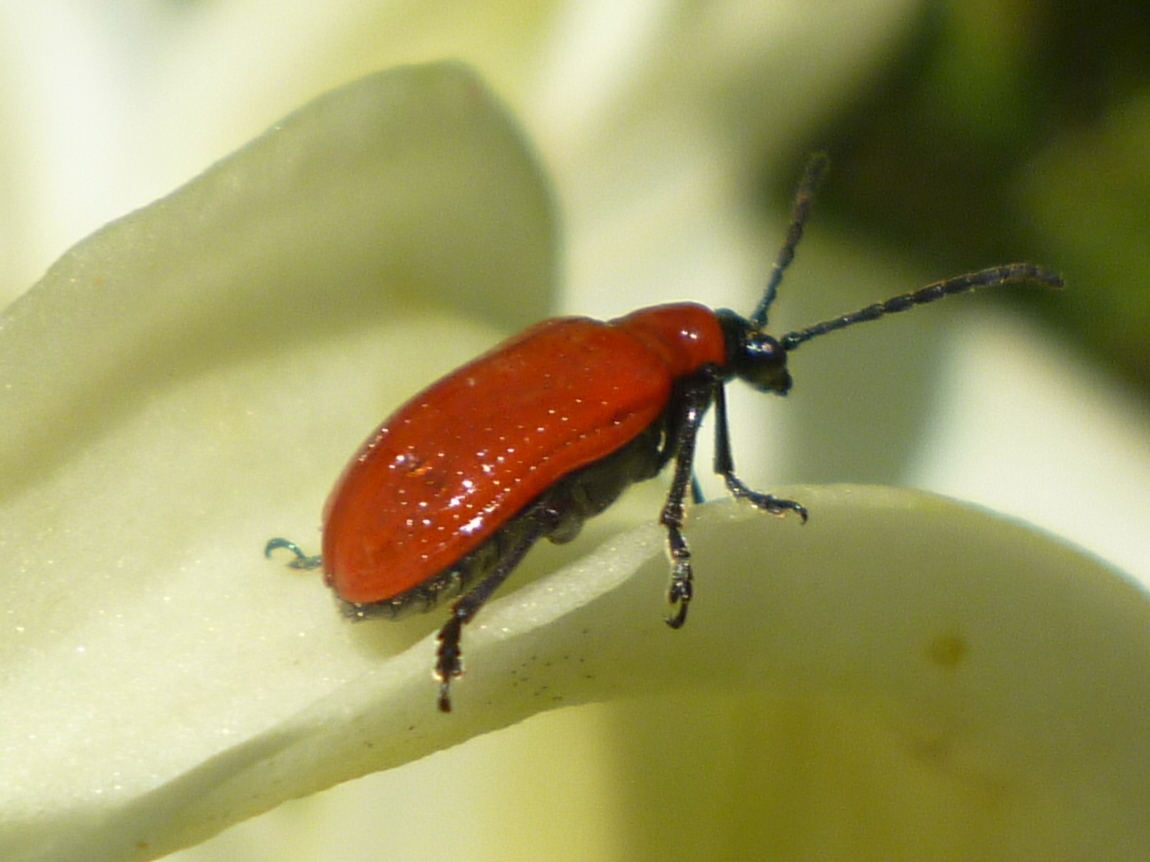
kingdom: Animalia
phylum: Arthropoda
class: Insecta
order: Coleoptera
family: Chrysomelidae
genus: Lilioceris
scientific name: Lilioceris lilii
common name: Lily beetle
